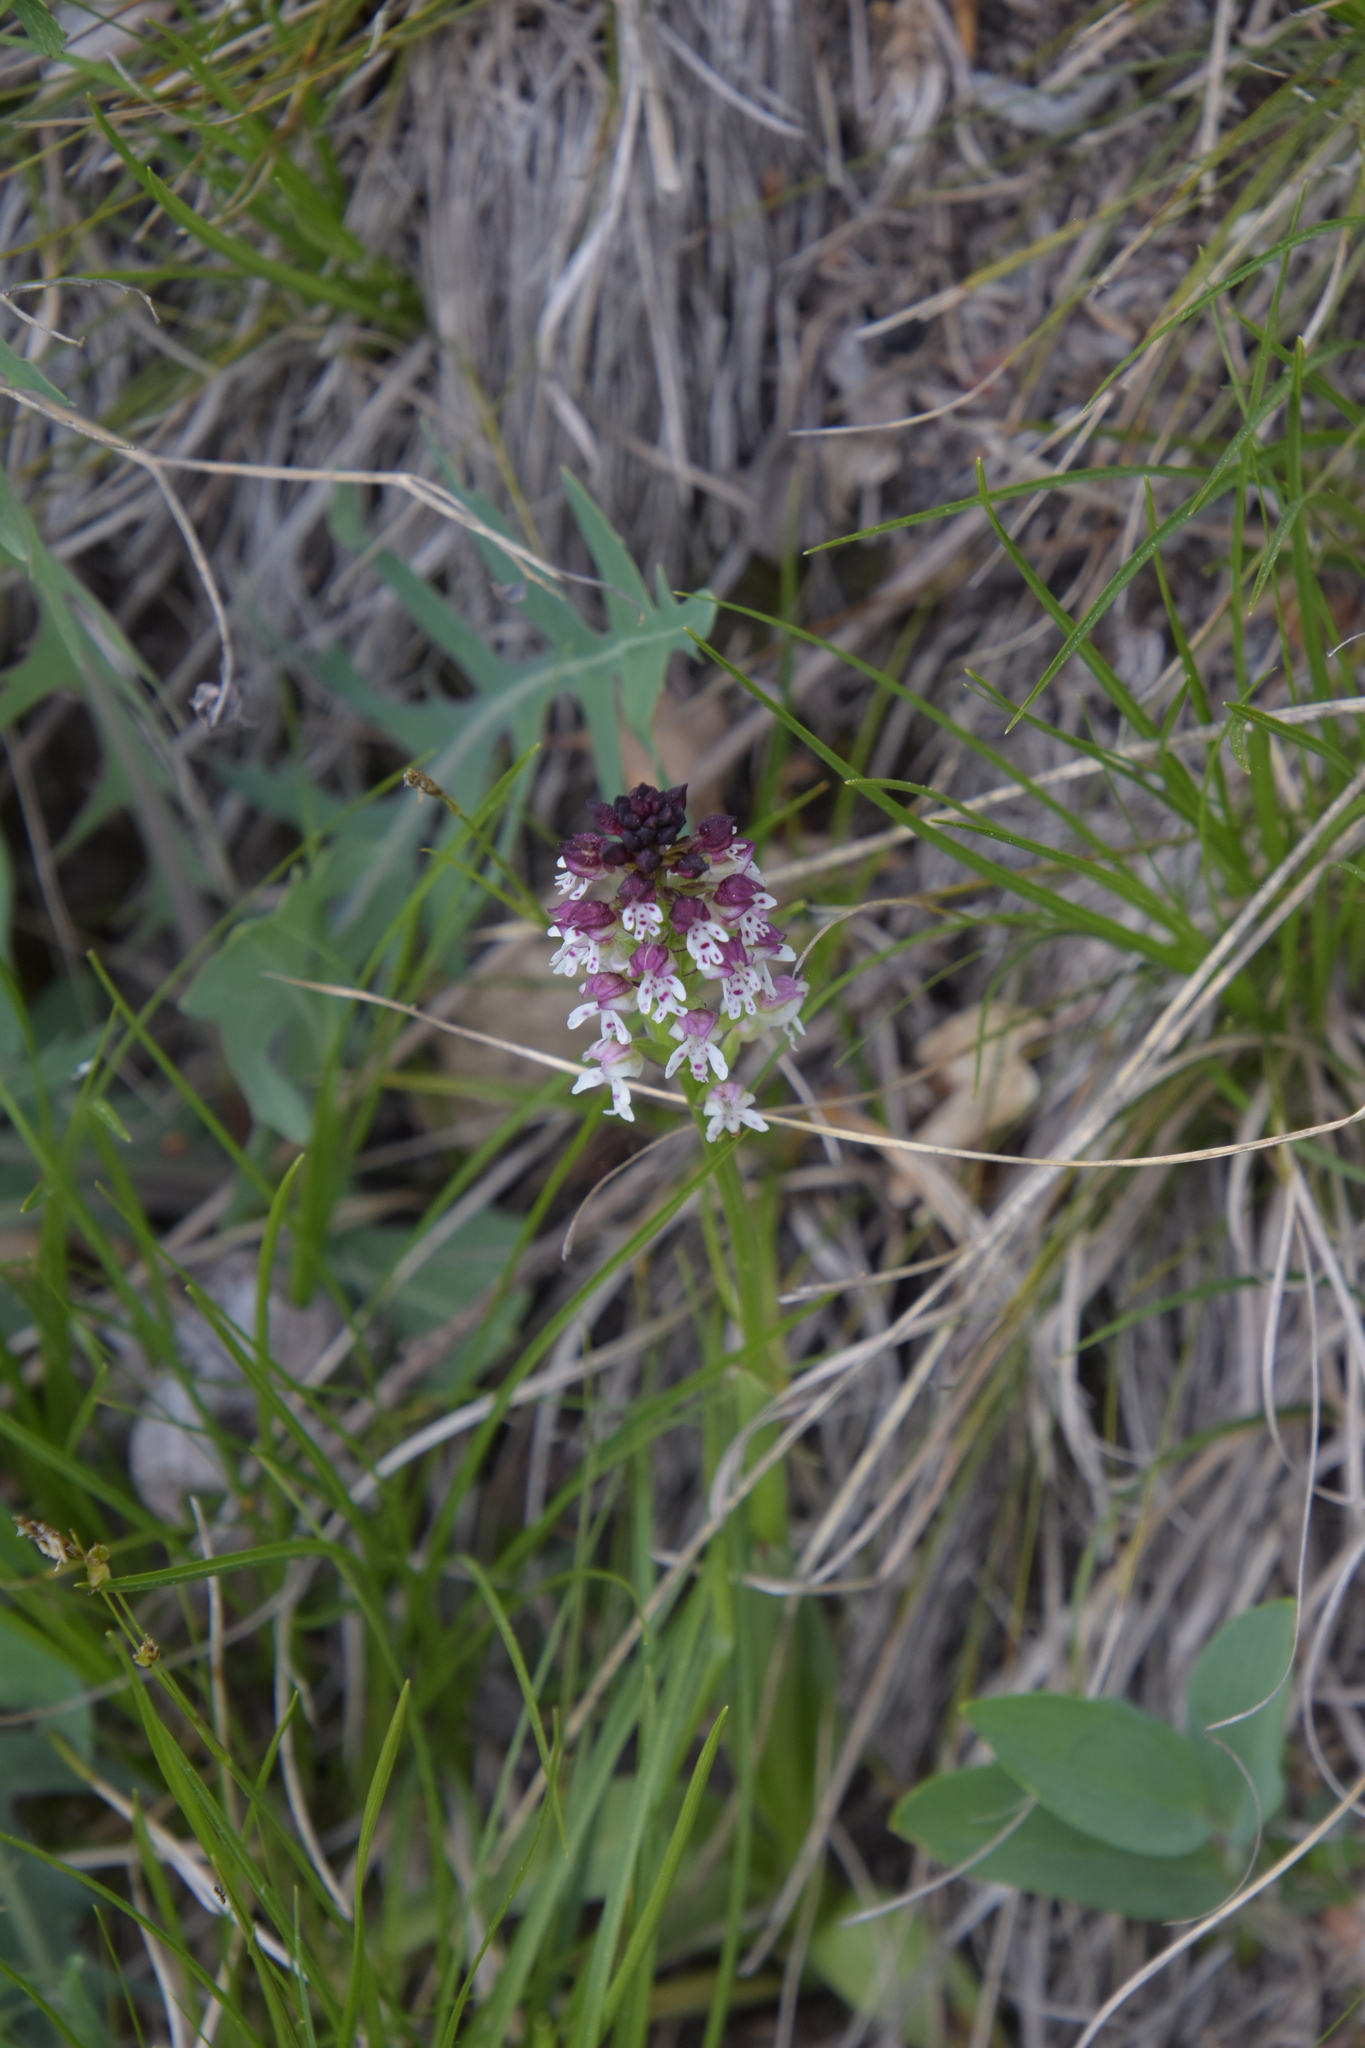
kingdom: Plantae
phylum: Tracheophyta
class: Liliopsida
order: Asparagales
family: Orchidaceae
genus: Neotinea
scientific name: Neotinea ustulata
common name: Burnt orchid
